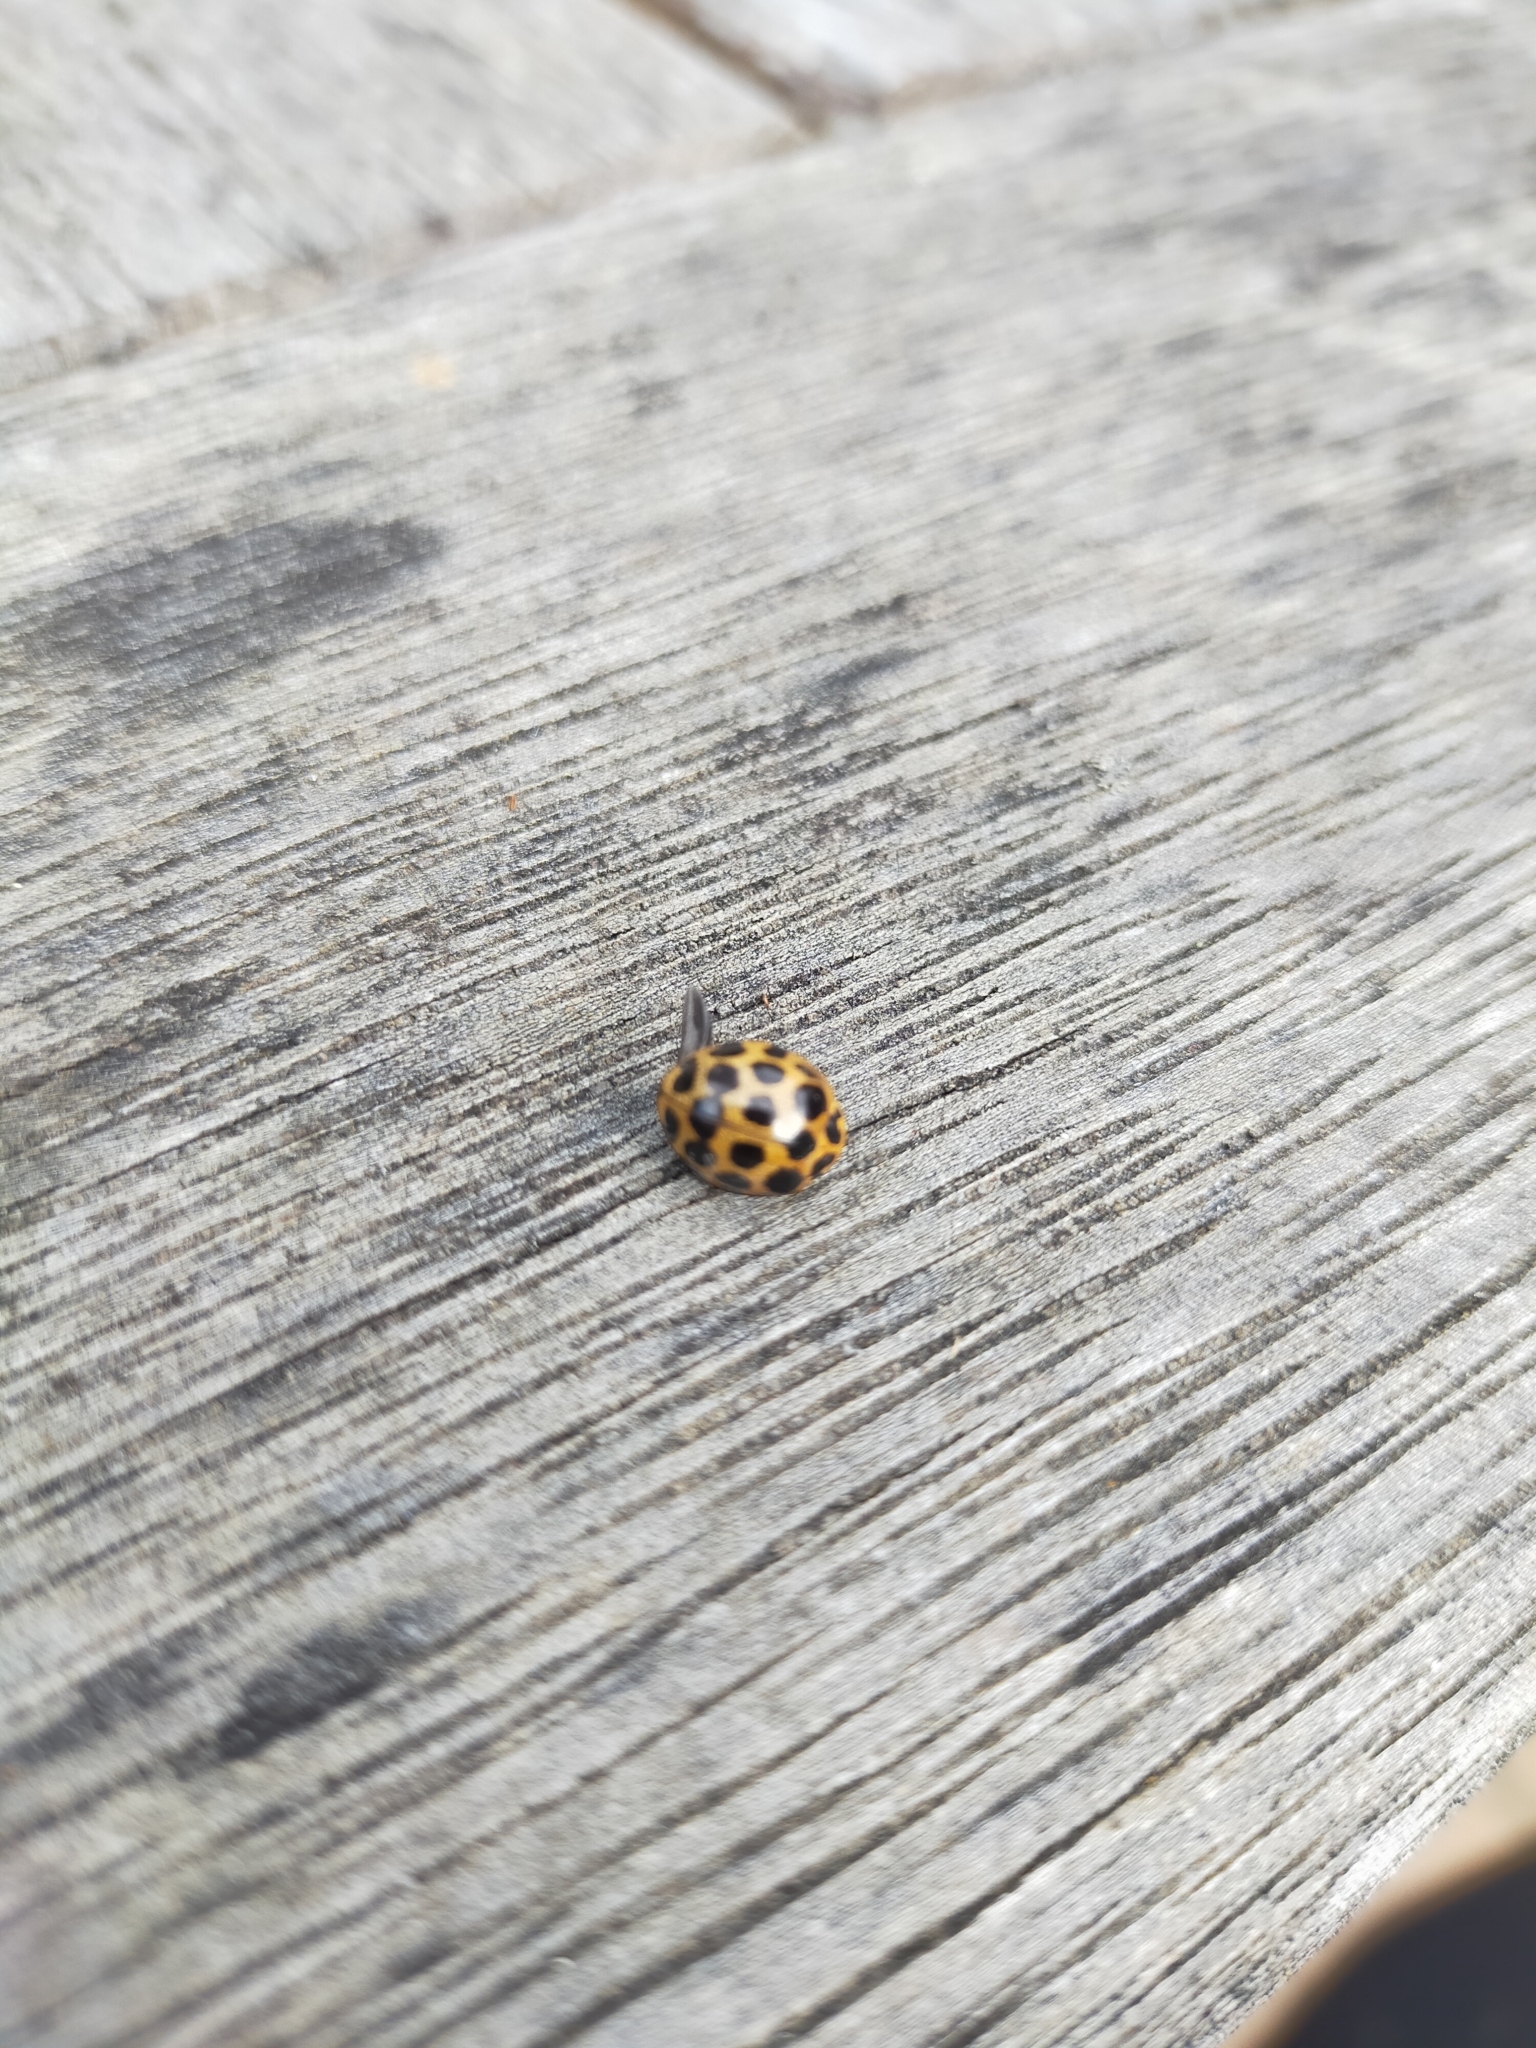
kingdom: Animalia
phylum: Arthropoda
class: Insecta
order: Coleoptera
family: Coccinellidae
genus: Harmonia
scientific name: Harmonia conformis
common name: Common spotted ladybird beetle
